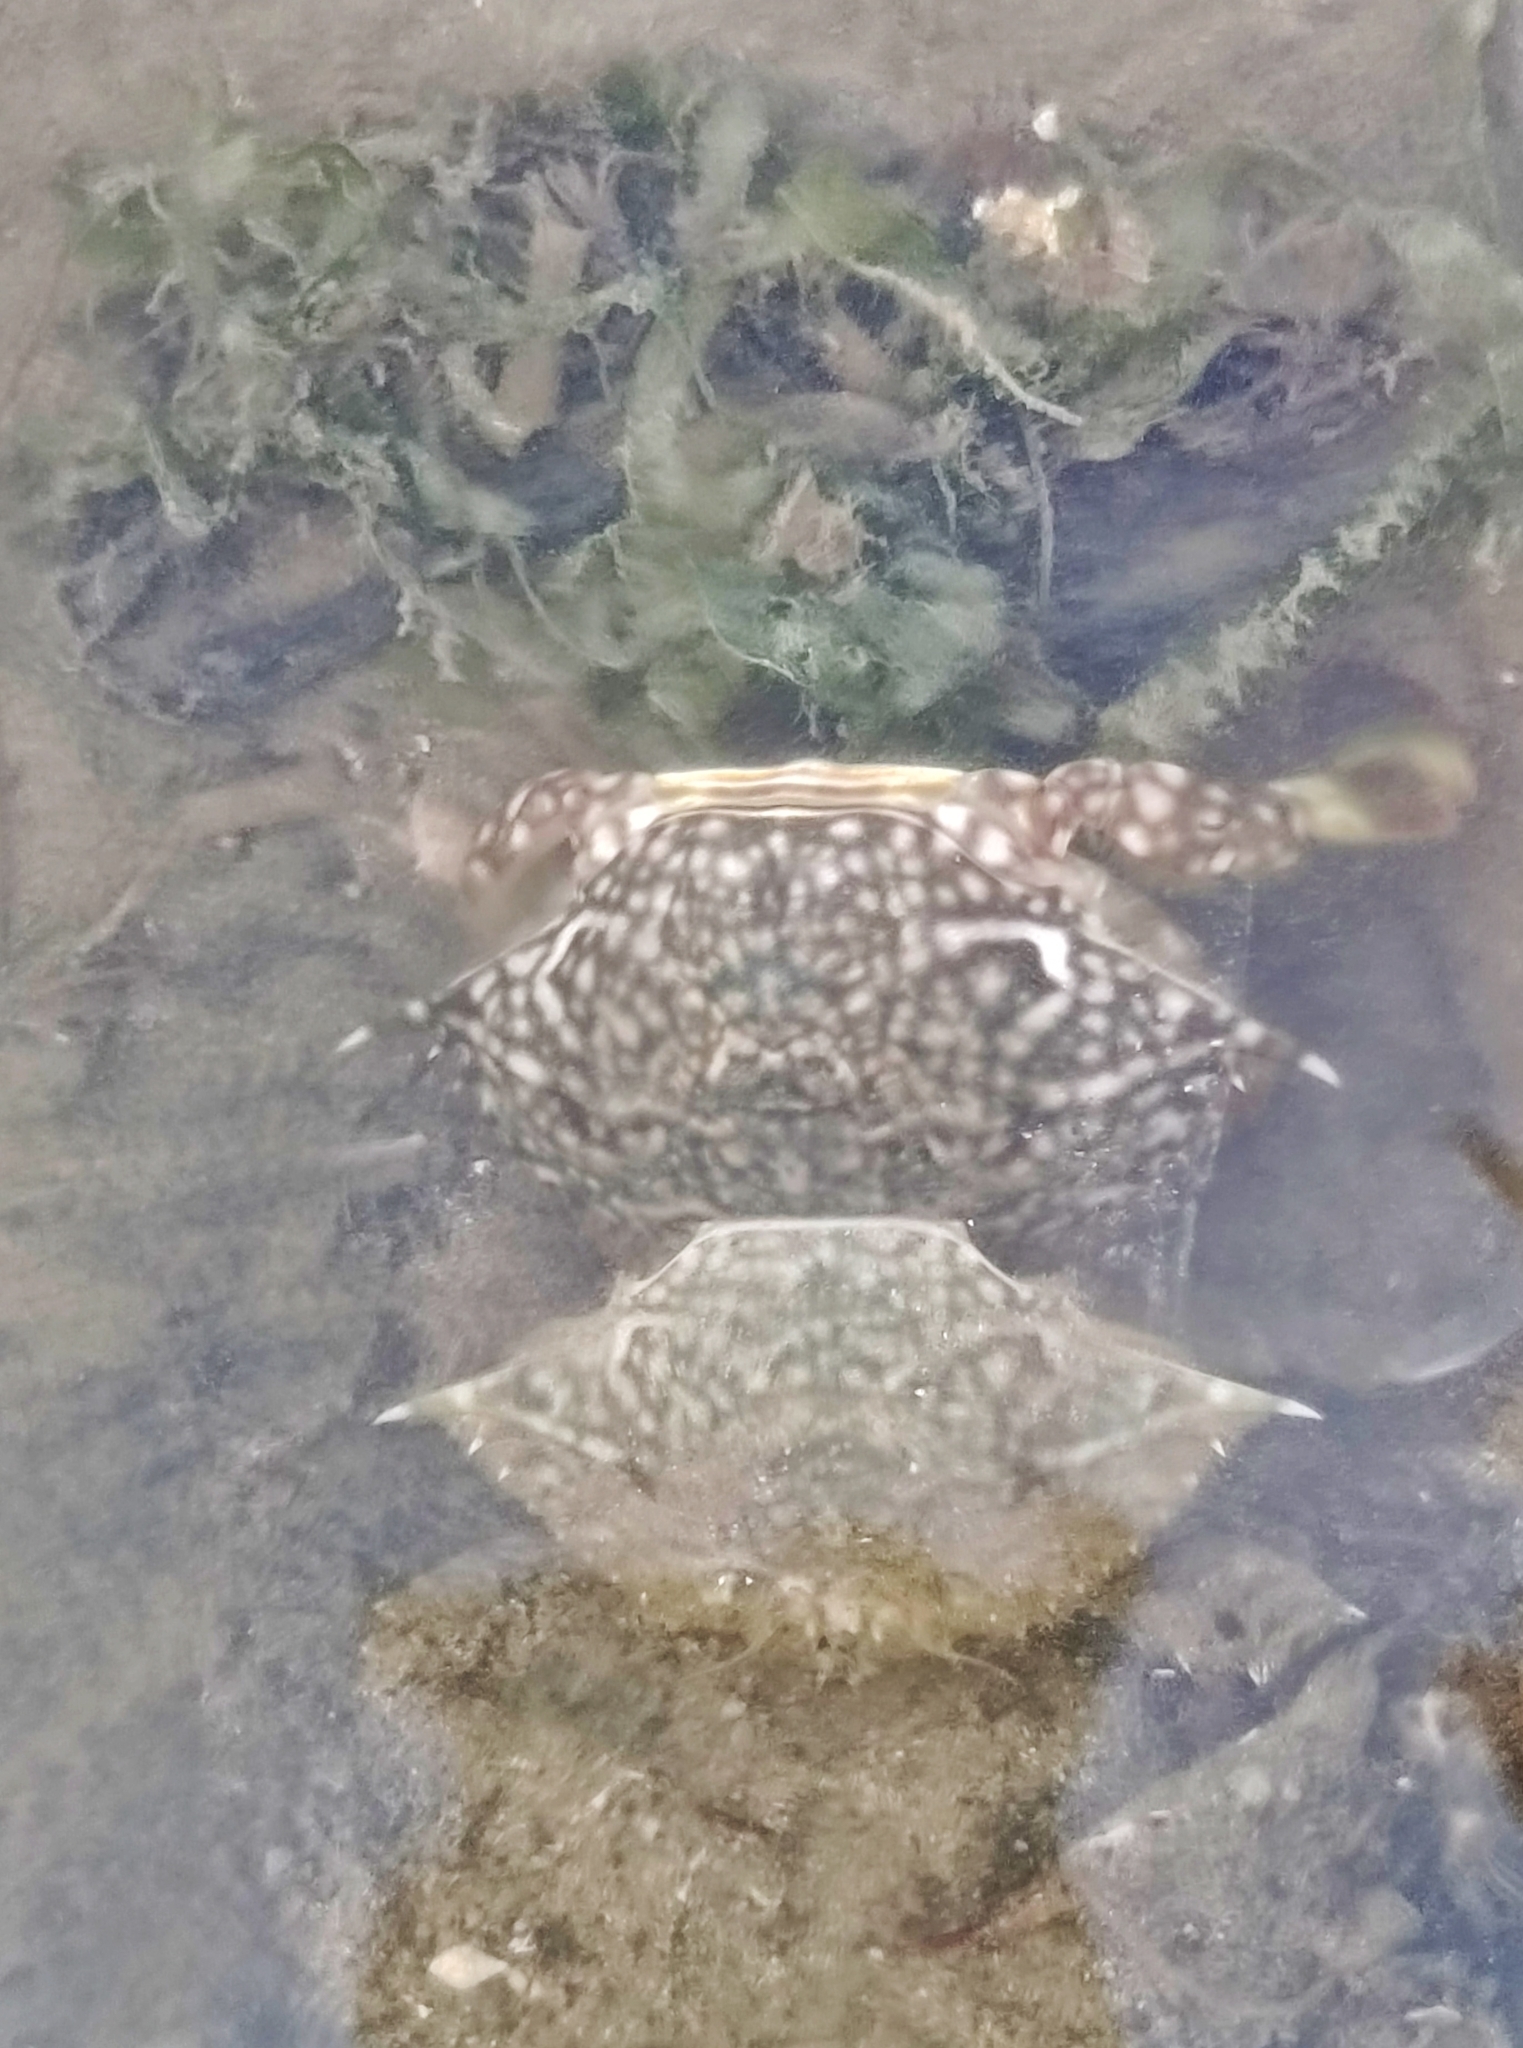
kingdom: Animalia
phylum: Arthropoda
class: Malacostraca
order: Decapoda
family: Portunidae
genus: Portunus
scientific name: Portunus pelagicus
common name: Blue swimming crab
